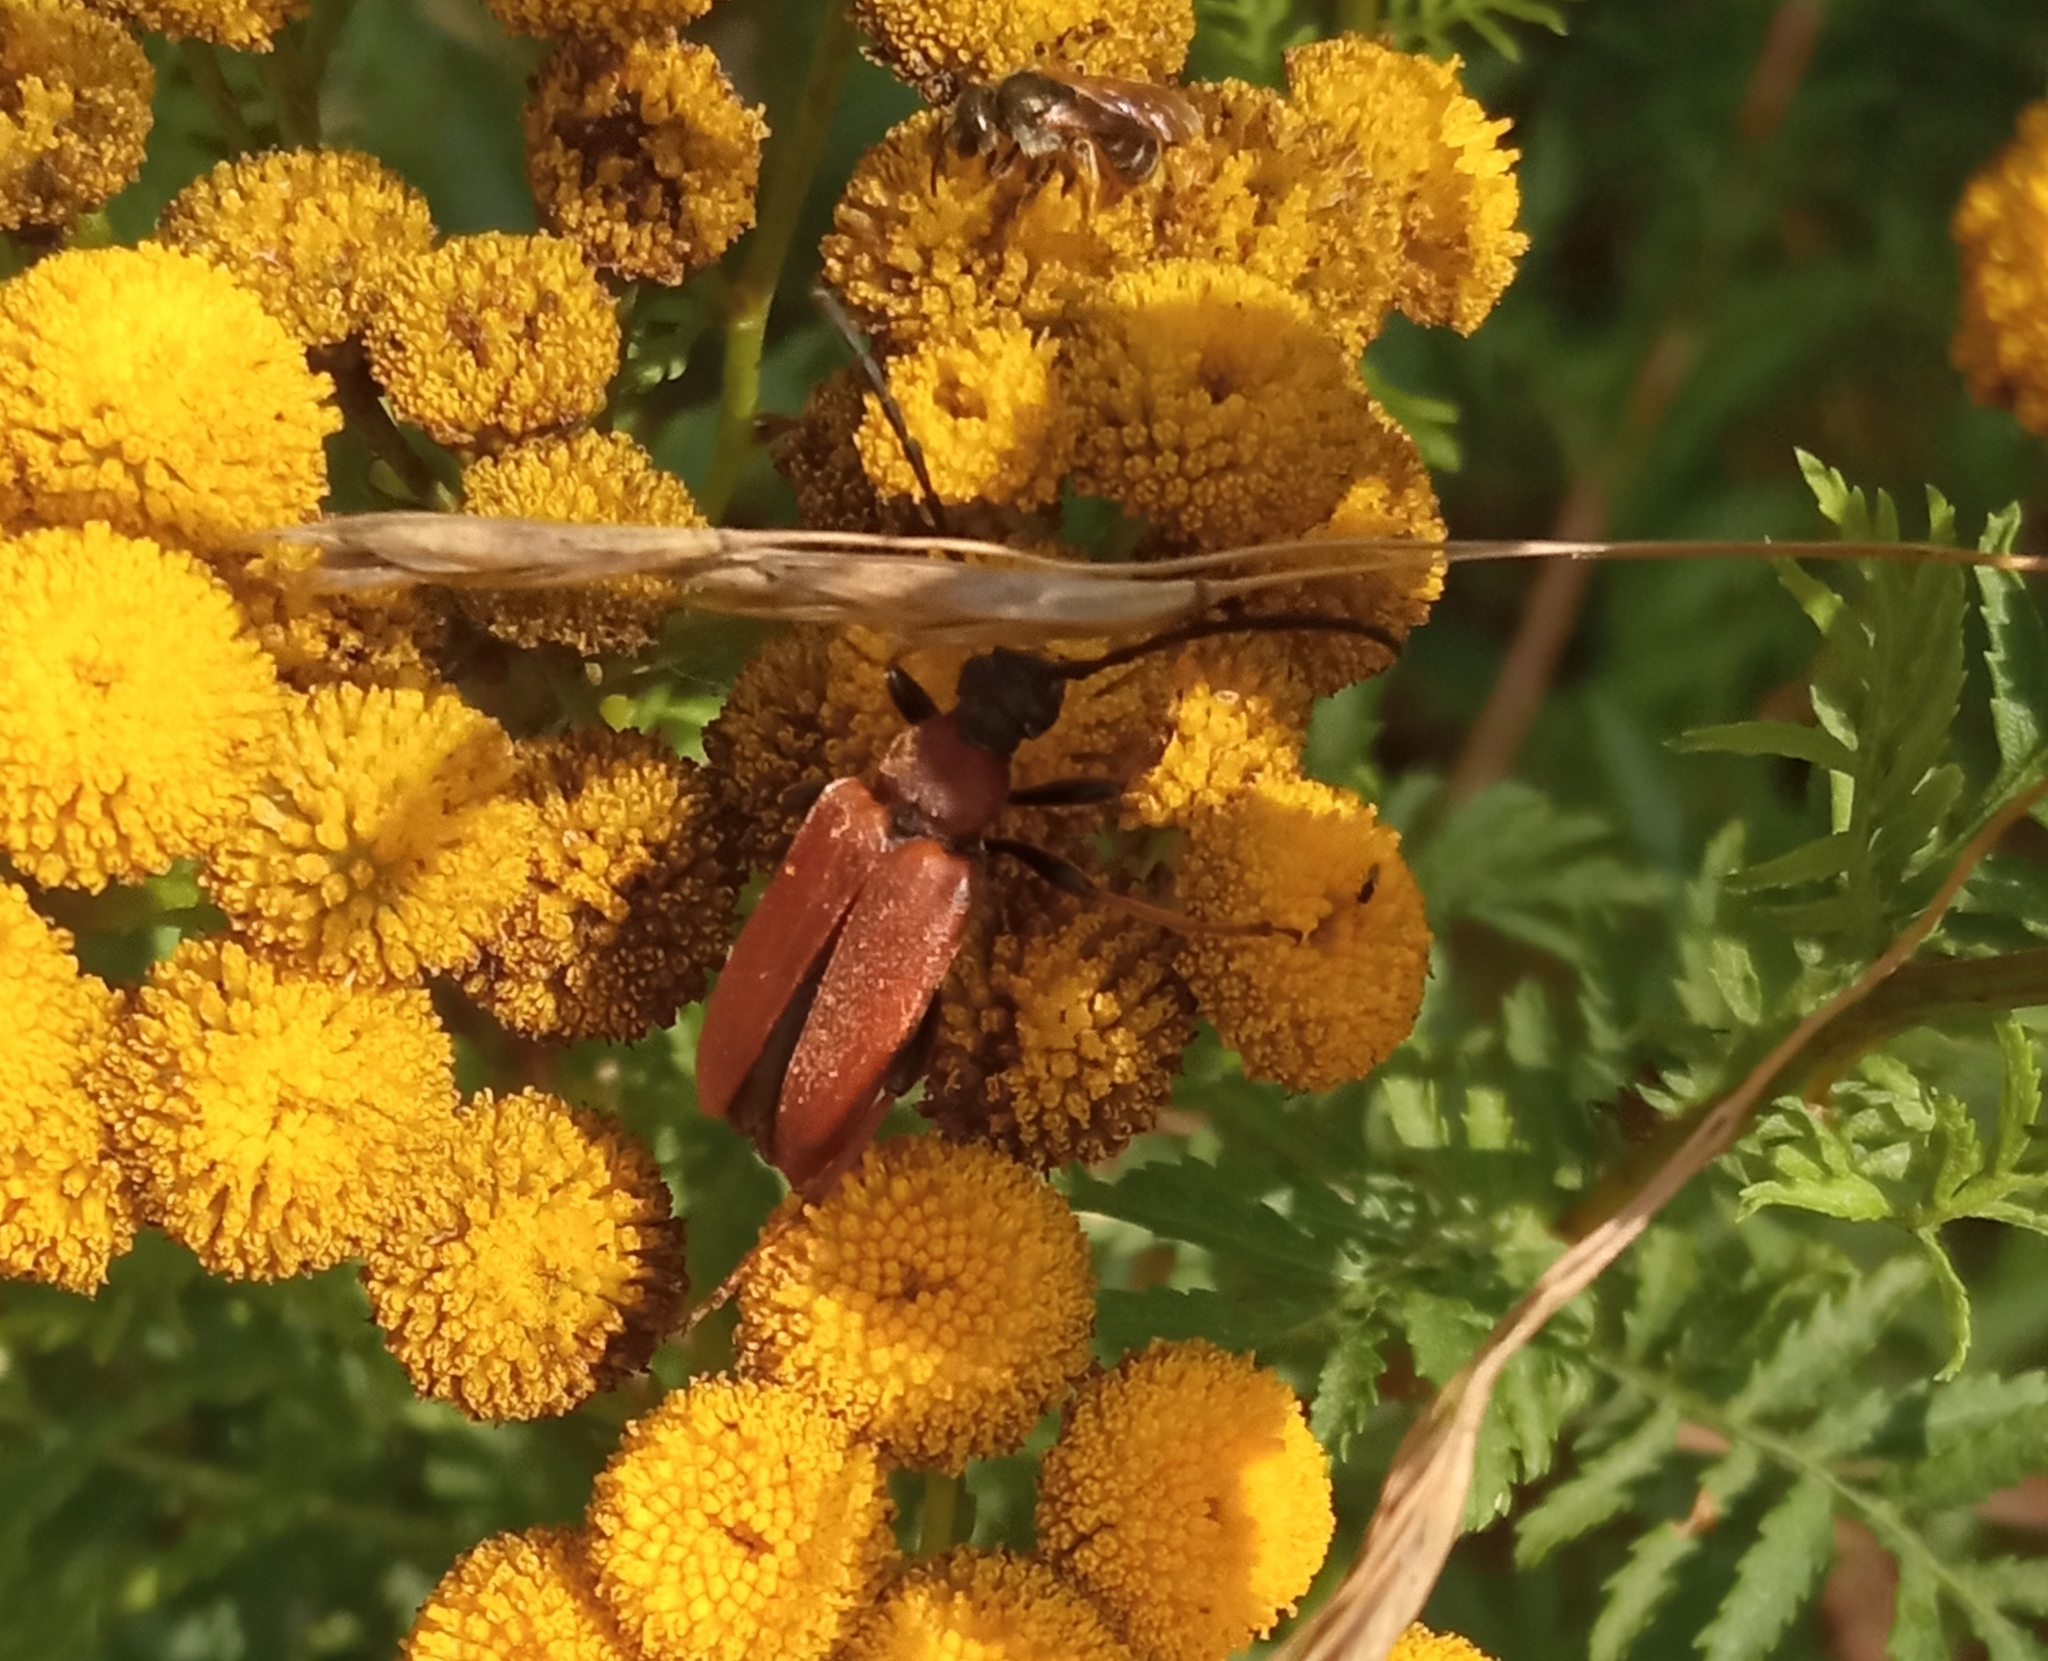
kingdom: Animalia
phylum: Arthropoda
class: Insecta
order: Coleoptera
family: Cerambycidae
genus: Stictoleptura
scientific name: Stictoleptura rubra
